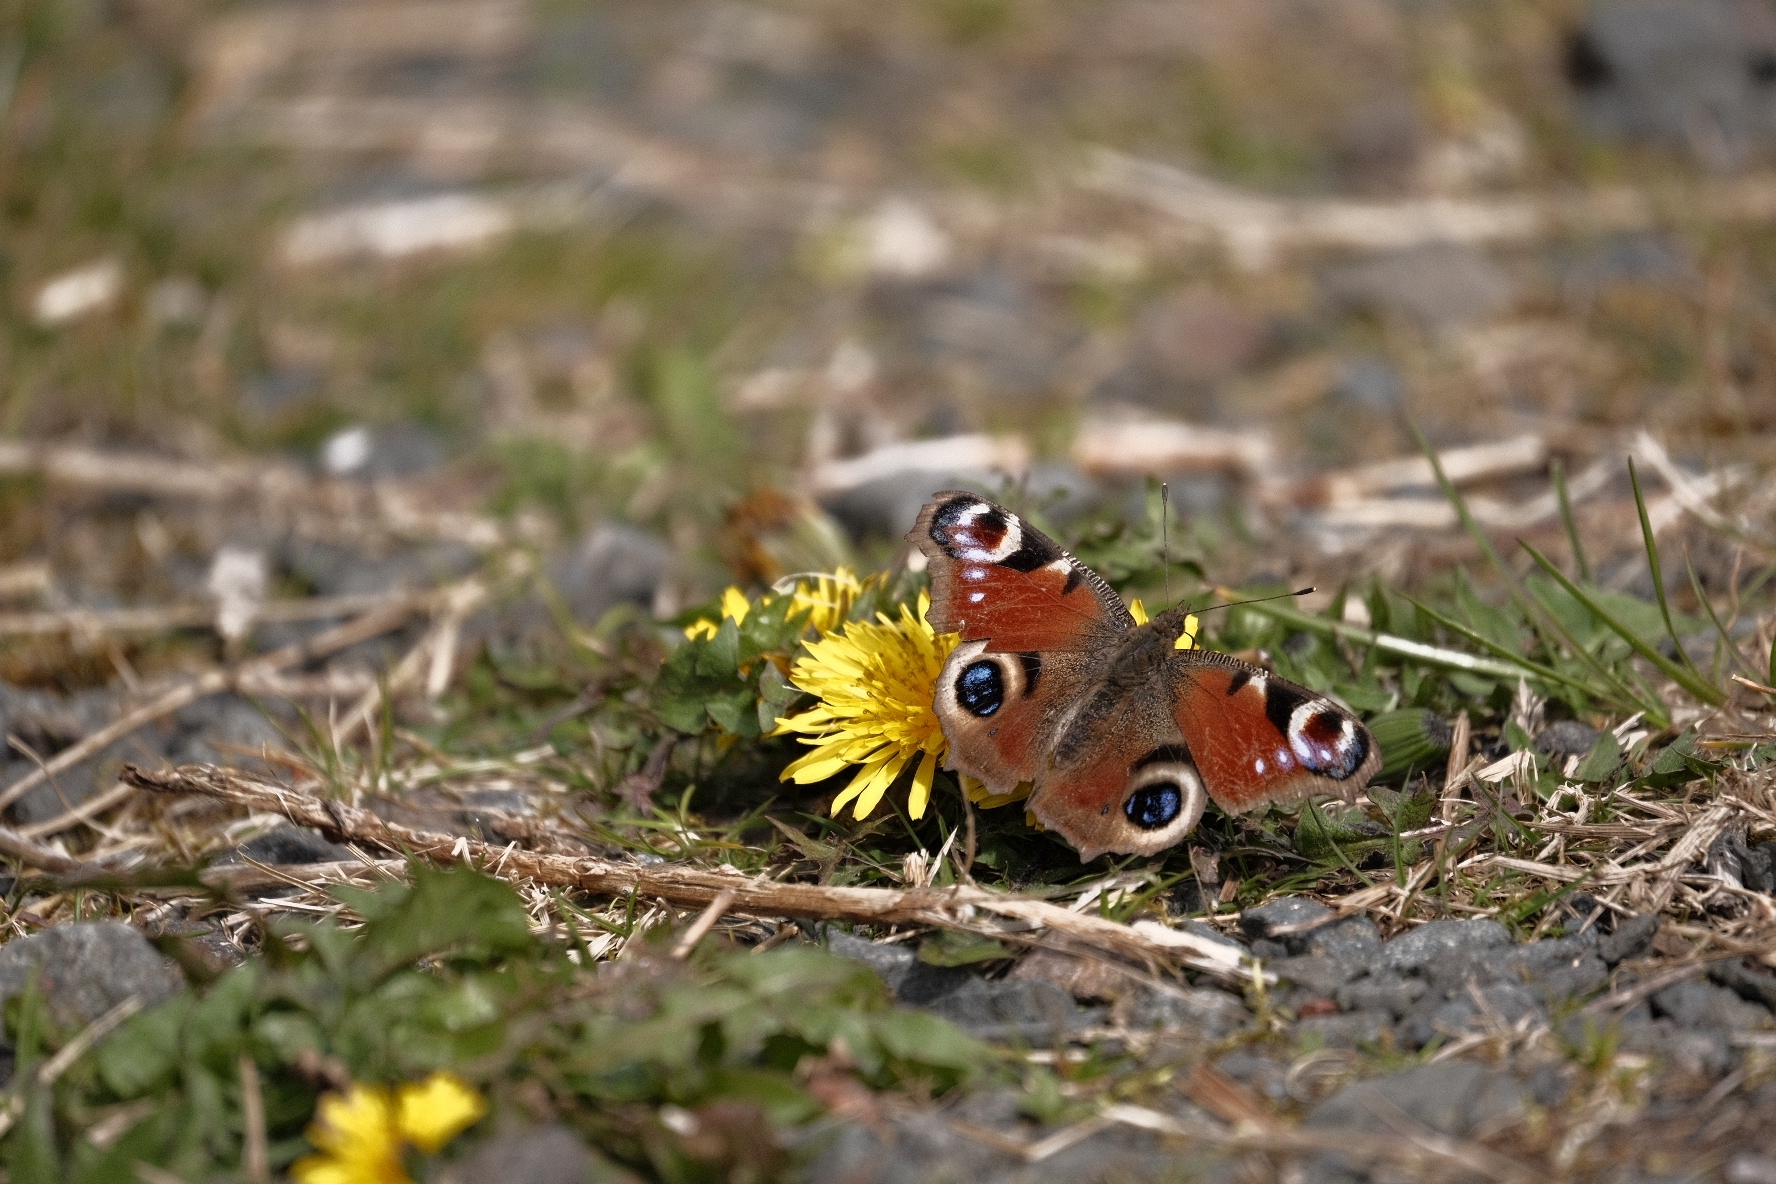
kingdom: Animalia
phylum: Arthropoda
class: Insecta
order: Lepidoptera
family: Nymphalidae
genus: Aglais
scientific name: Aglais io
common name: Peacock
